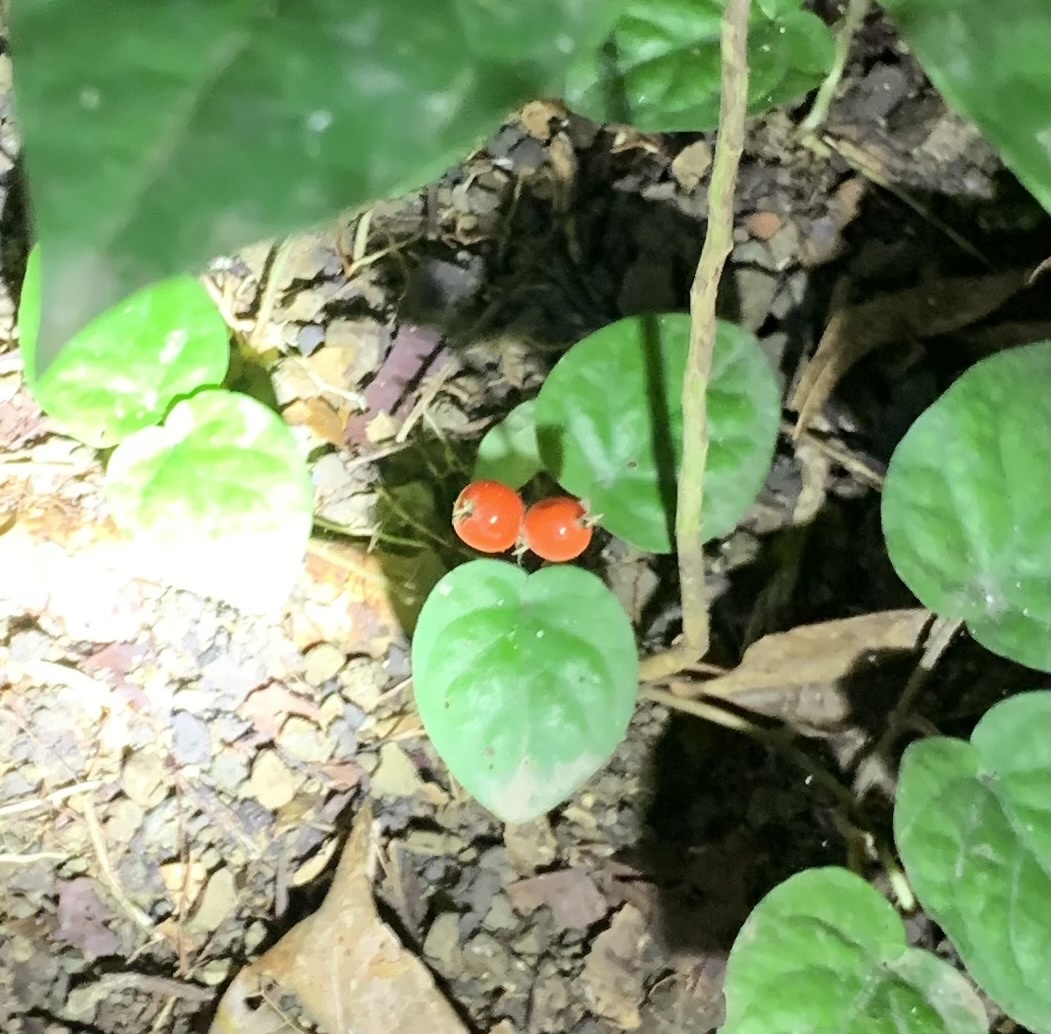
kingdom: Plantae
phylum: Tracheophyta
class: Magnoliopsida
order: Gentianales
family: Rubiaceae
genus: Geophila
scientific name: Geophila repens
